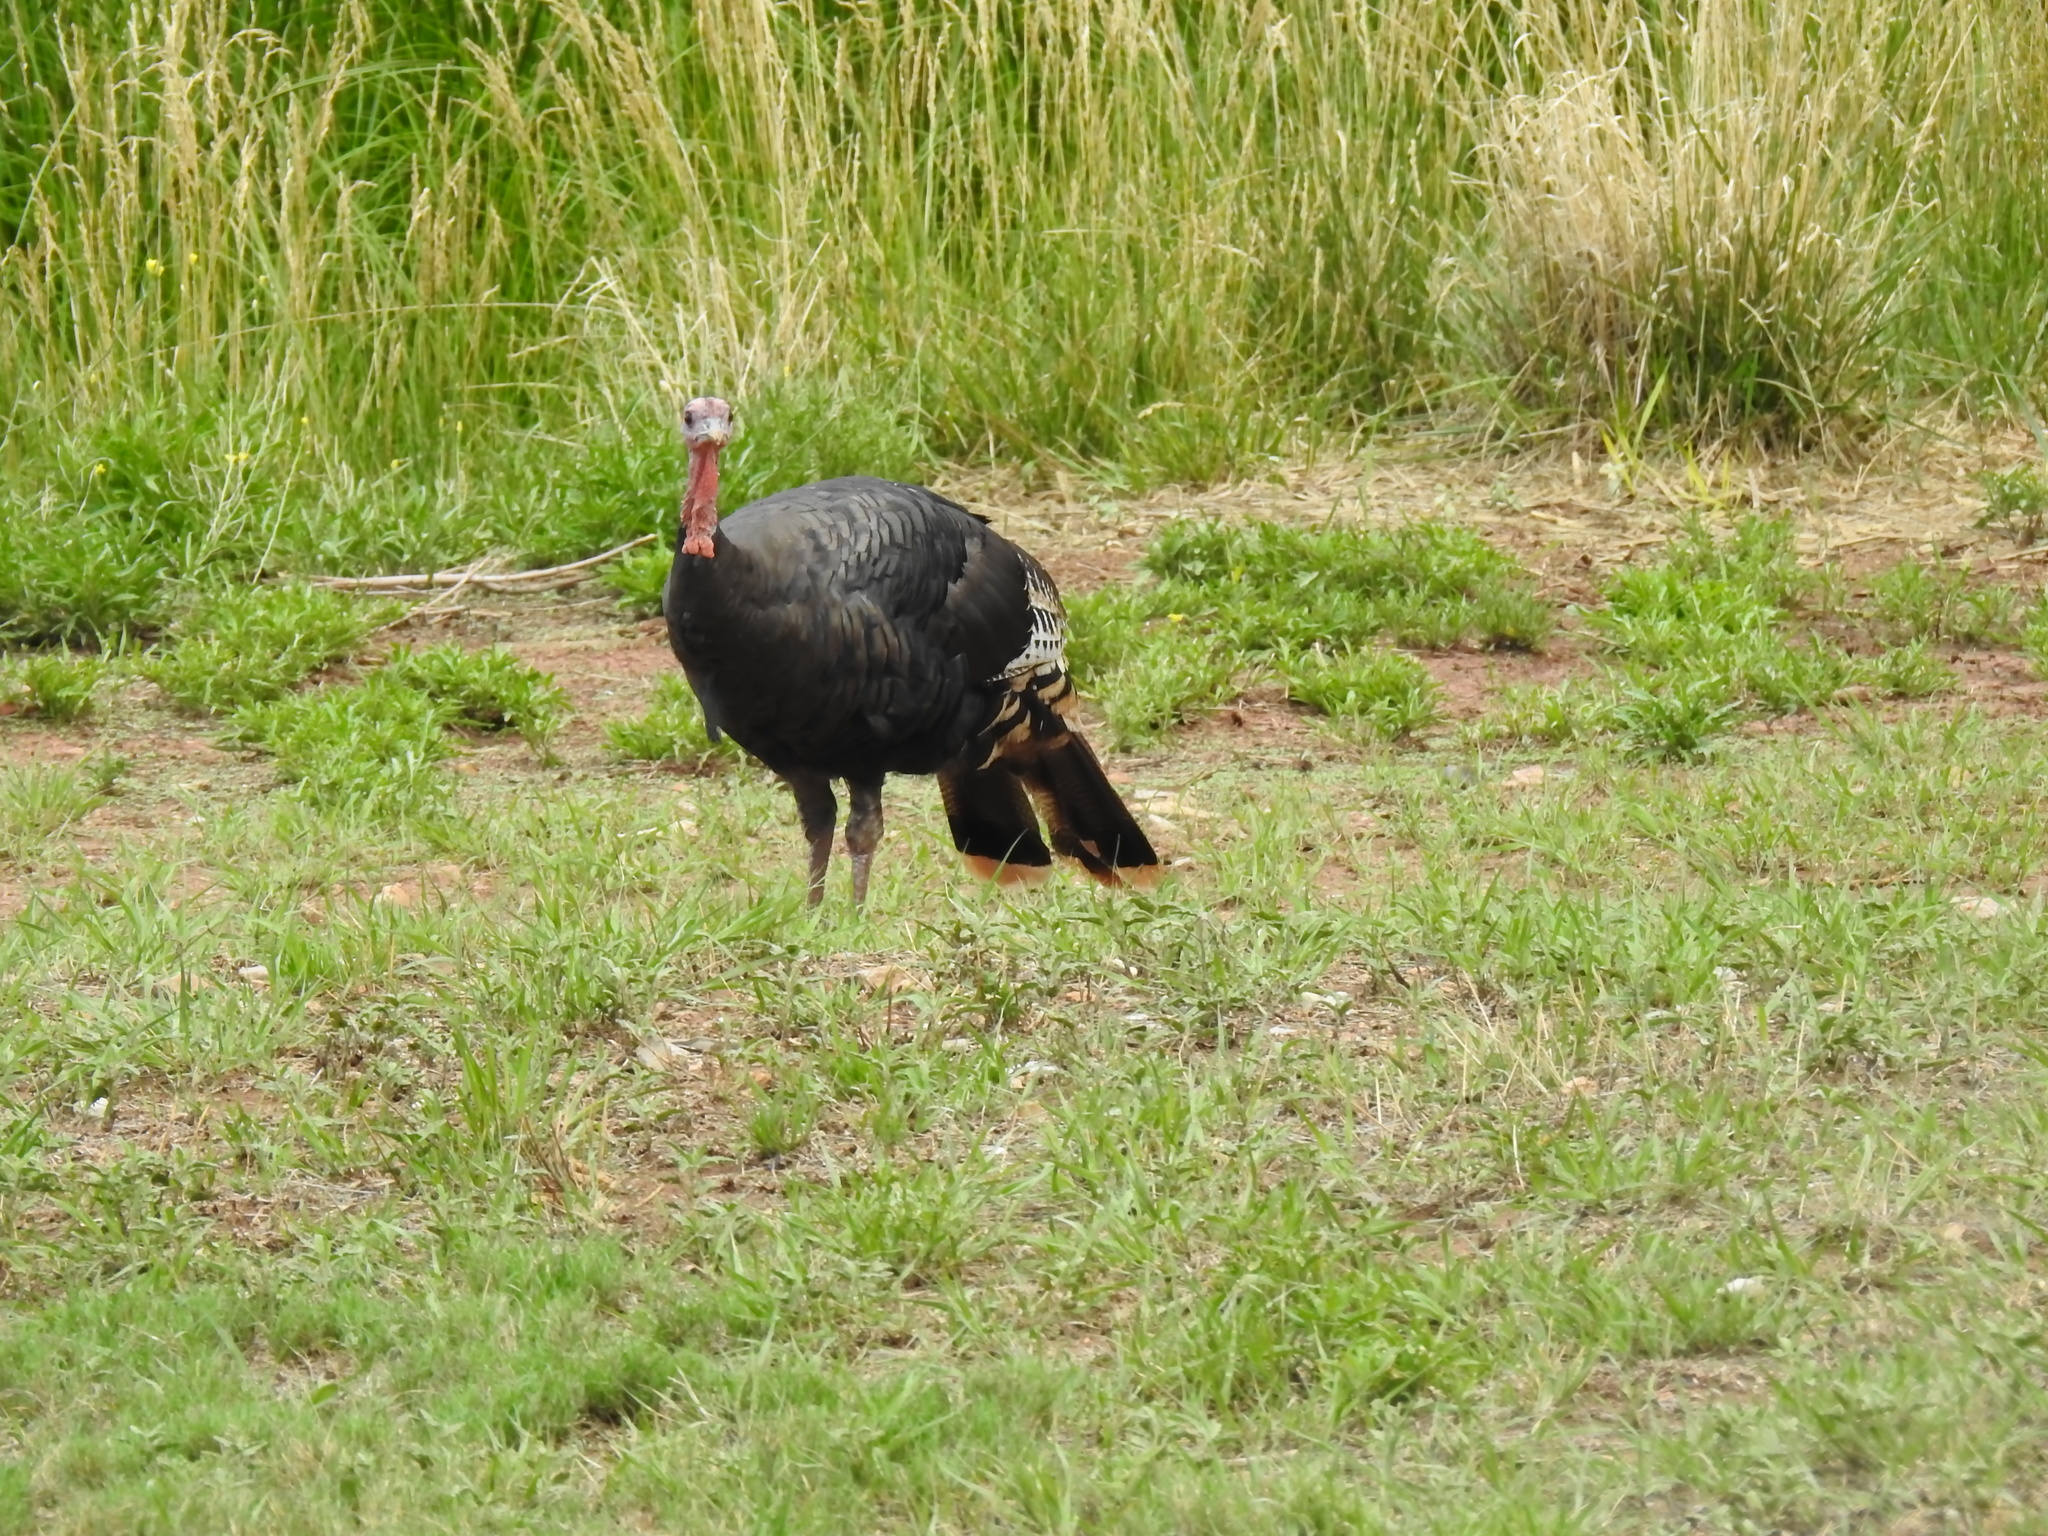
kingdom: Animalia
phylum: Chordata
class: Aves
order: Galliformes
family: Phasianidae
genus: Meleagris
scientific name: Meleagris gallopavo
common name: Wild turkey
